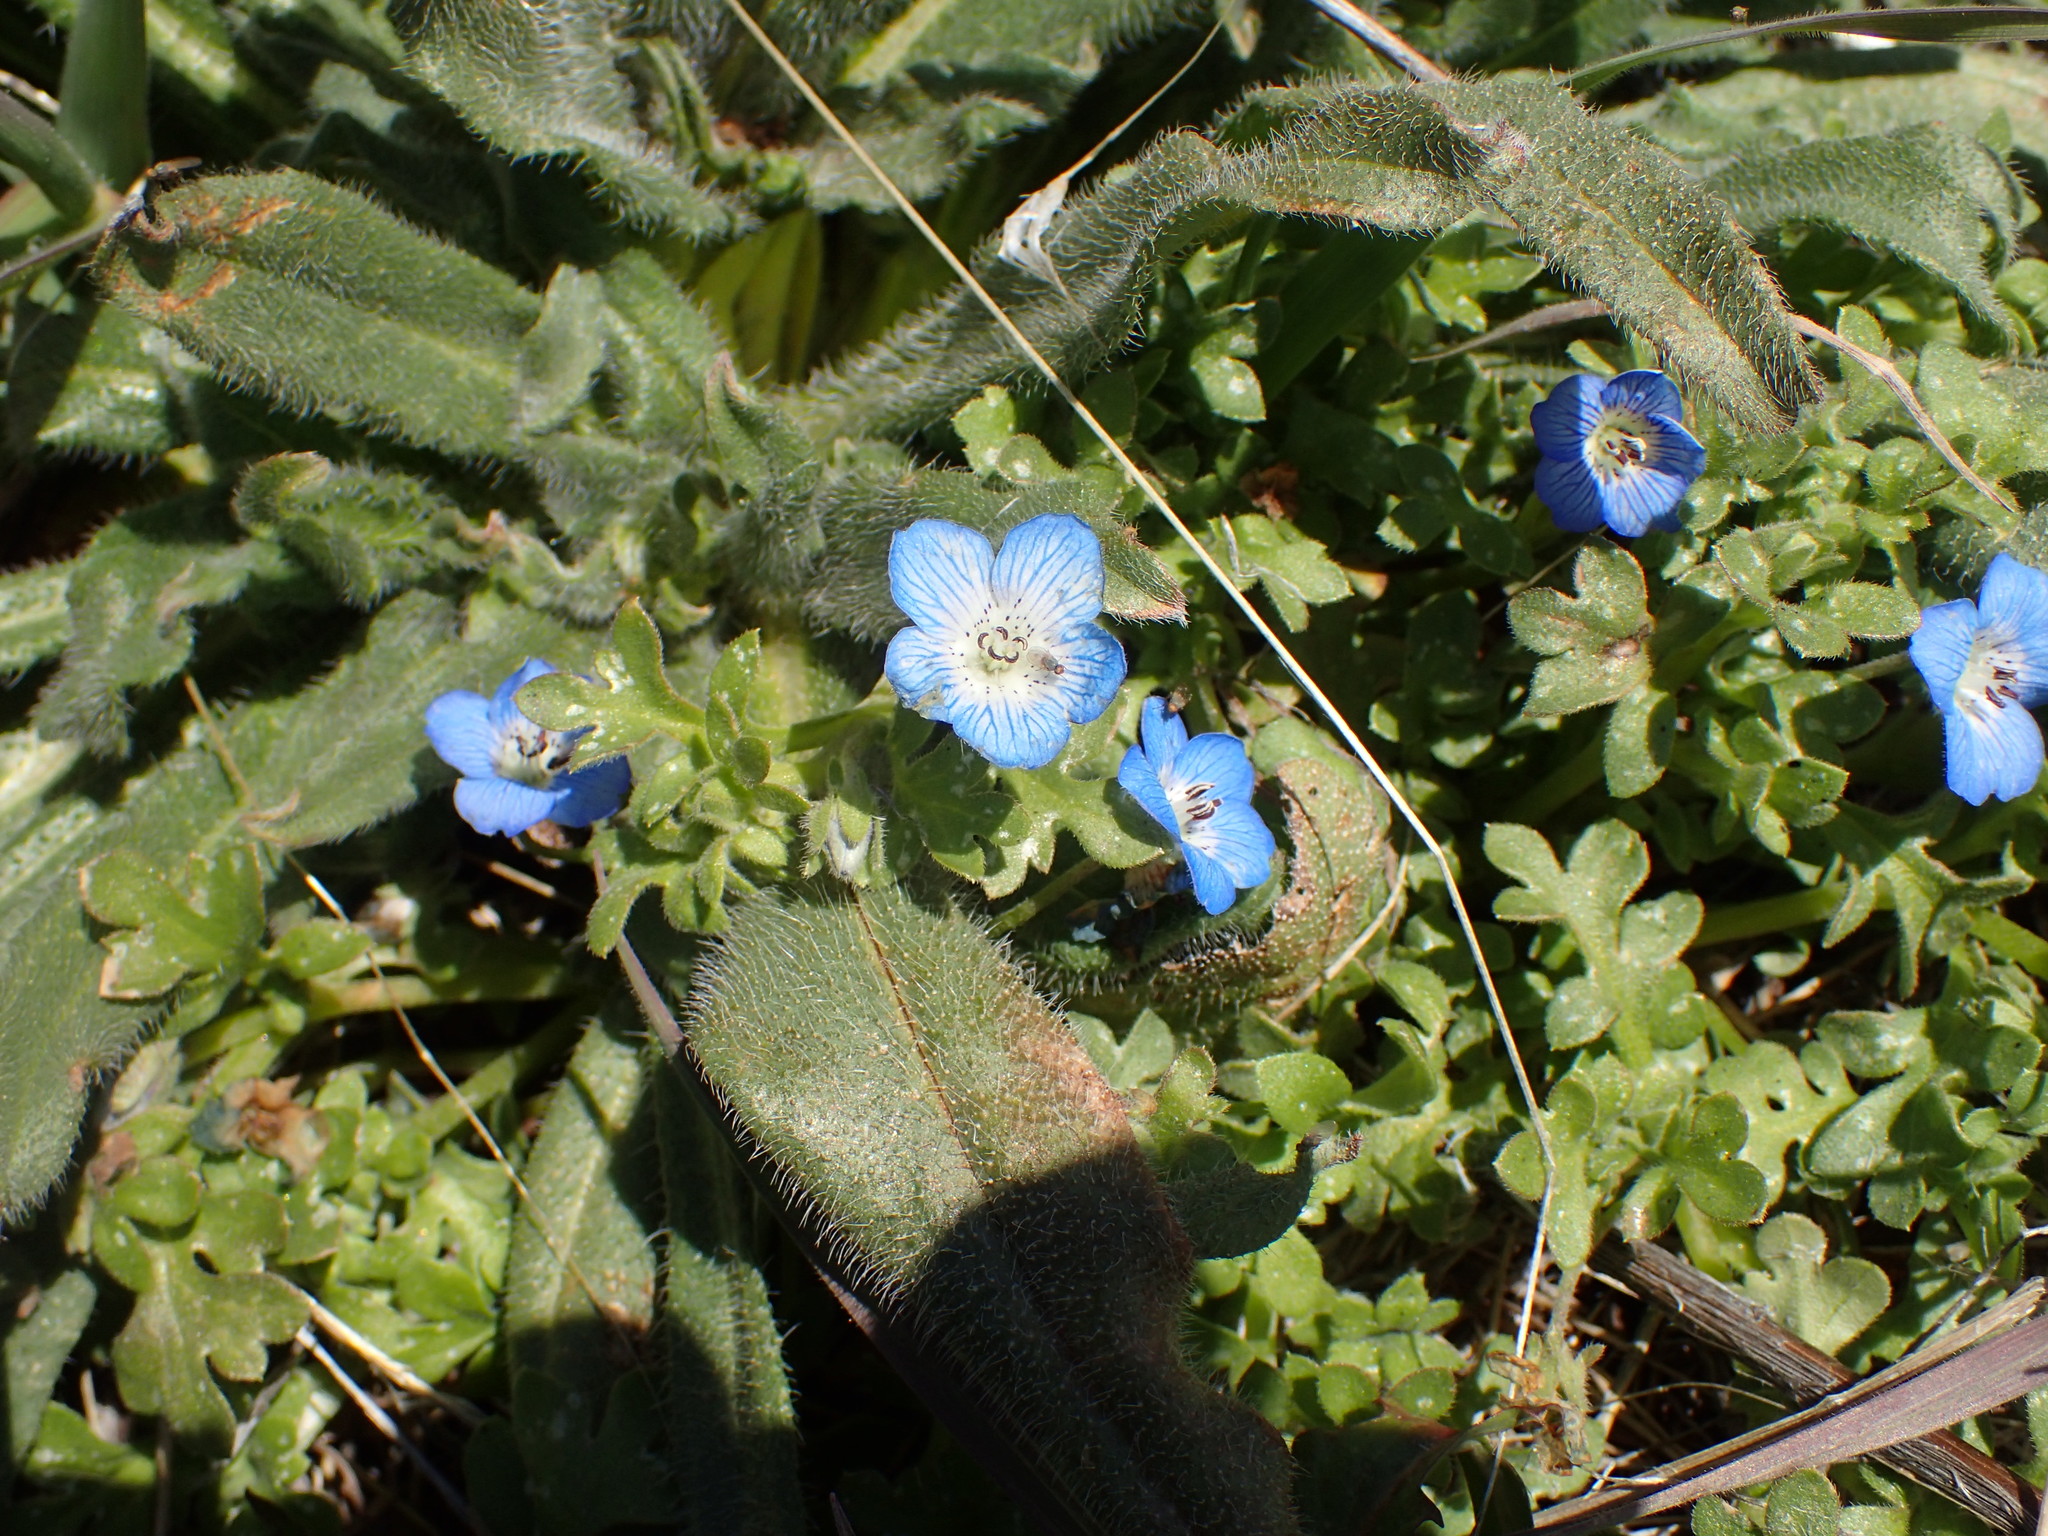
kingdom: Plantae
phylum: Tracheophyta
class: Magnoliopsida
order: Boraginales
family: Hydrophyllaceae
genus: Nemophila
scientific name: Nemophila menziesii
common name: Baby's-blue-eyes
